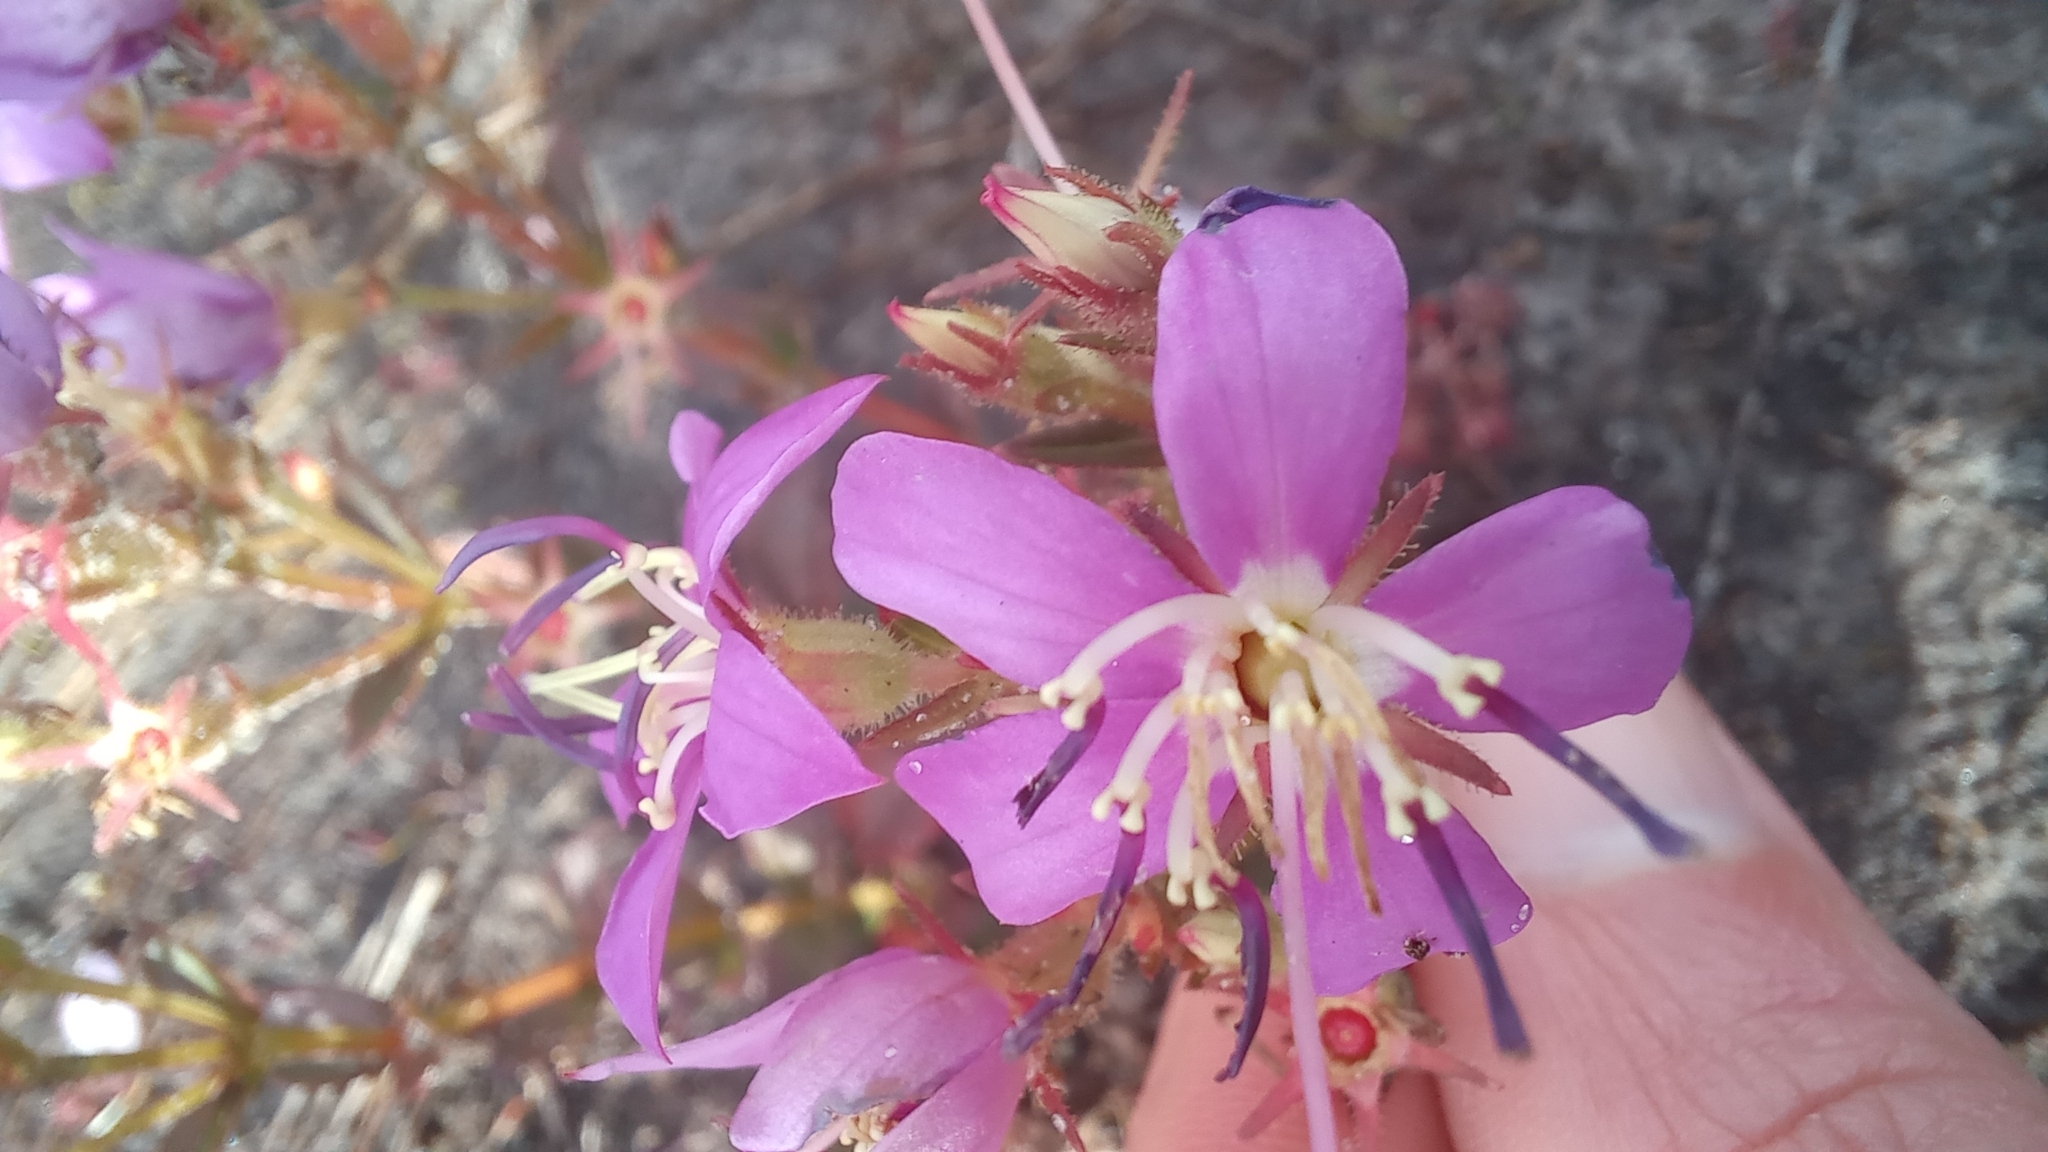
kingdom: Plantae
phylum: Tracheophyta
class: Magnoliopsida
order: Myrtales
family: Melastomataceae
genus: Acisanthera
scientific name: Acisanthera alsinaefolia
